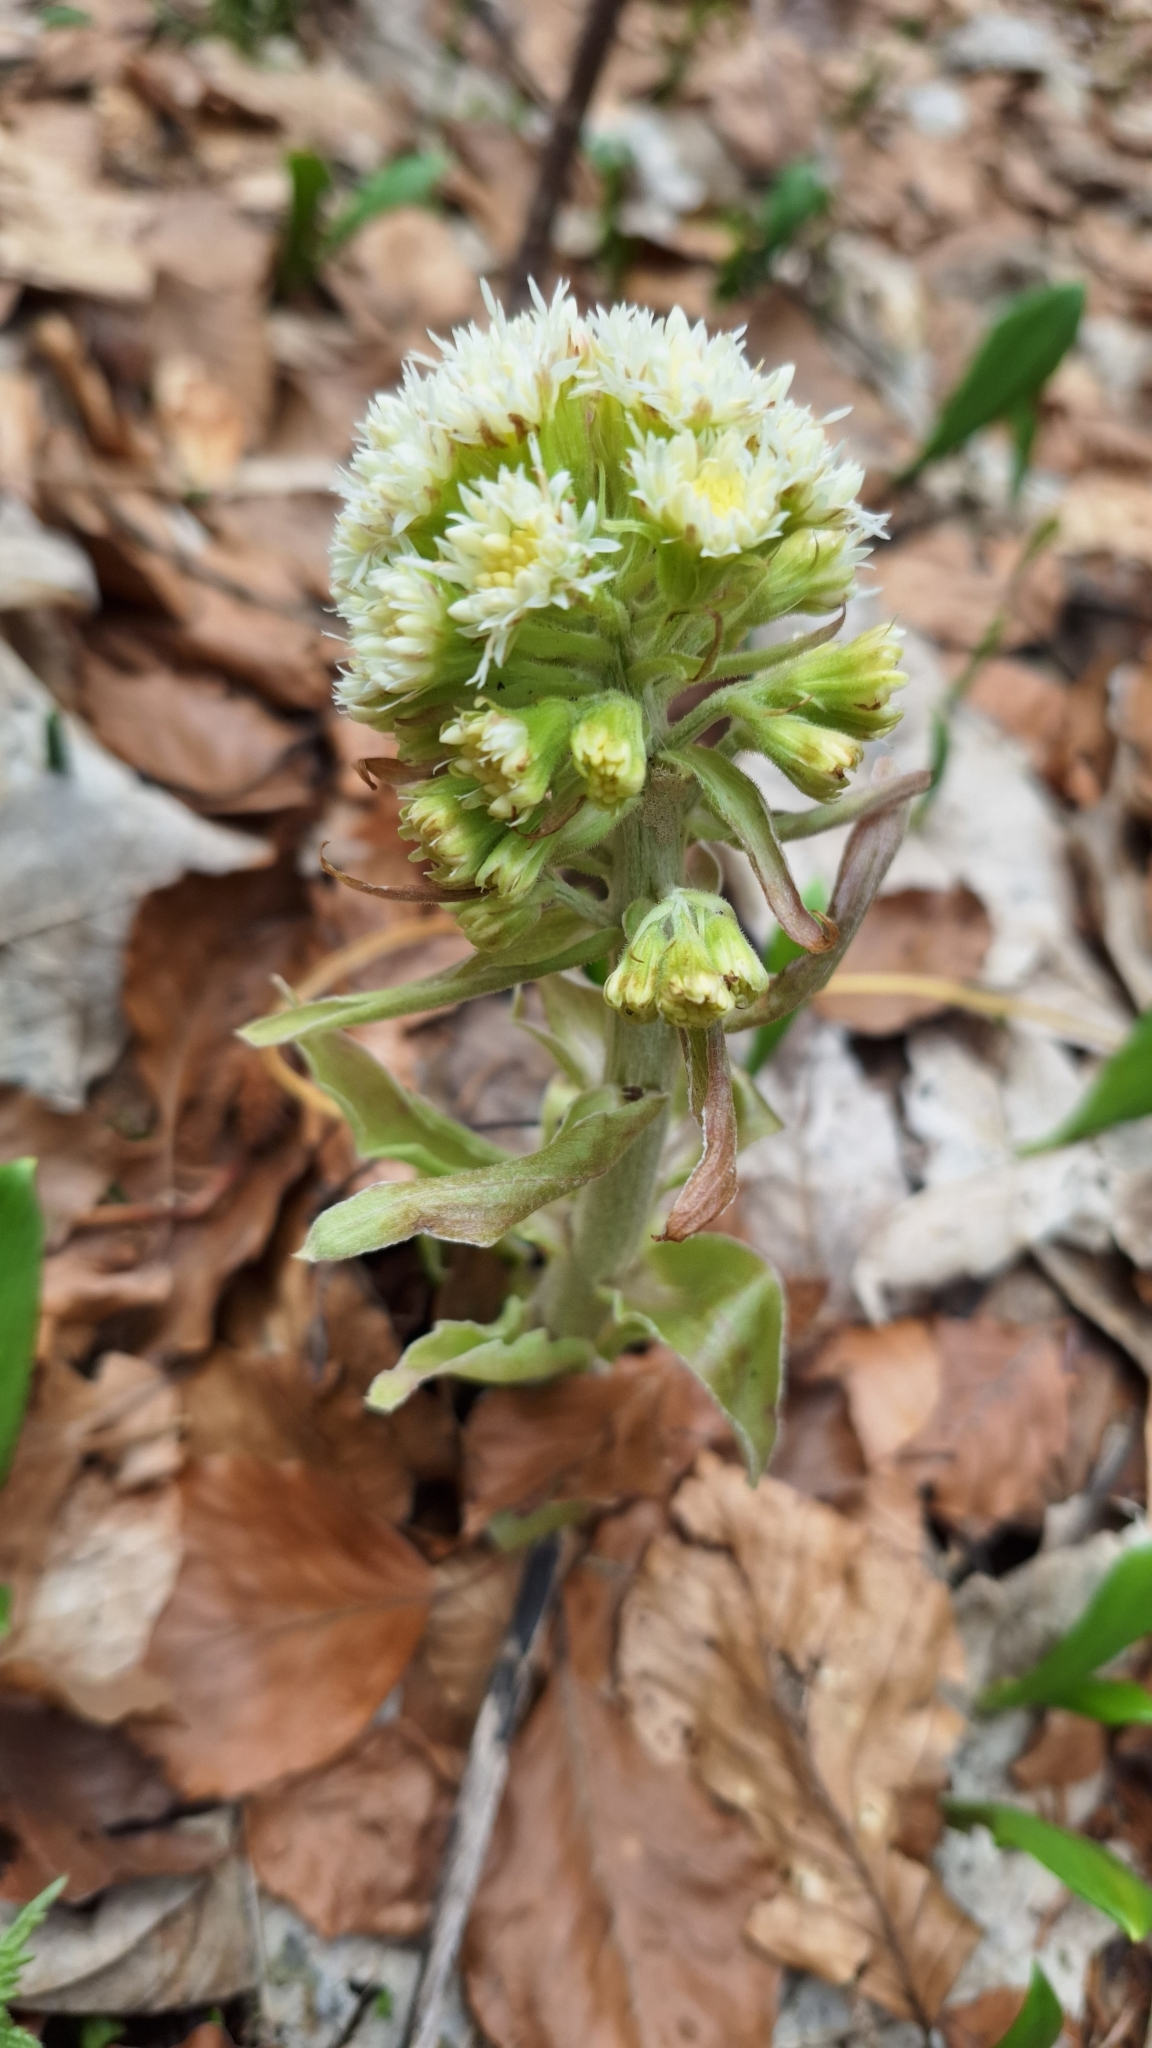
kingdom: Plantae
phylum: Tracheophyta
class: Magnoliopsida
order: Asterales
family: Asteraceae
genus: Petasites
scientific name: Petasites albus
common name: White butterbur
